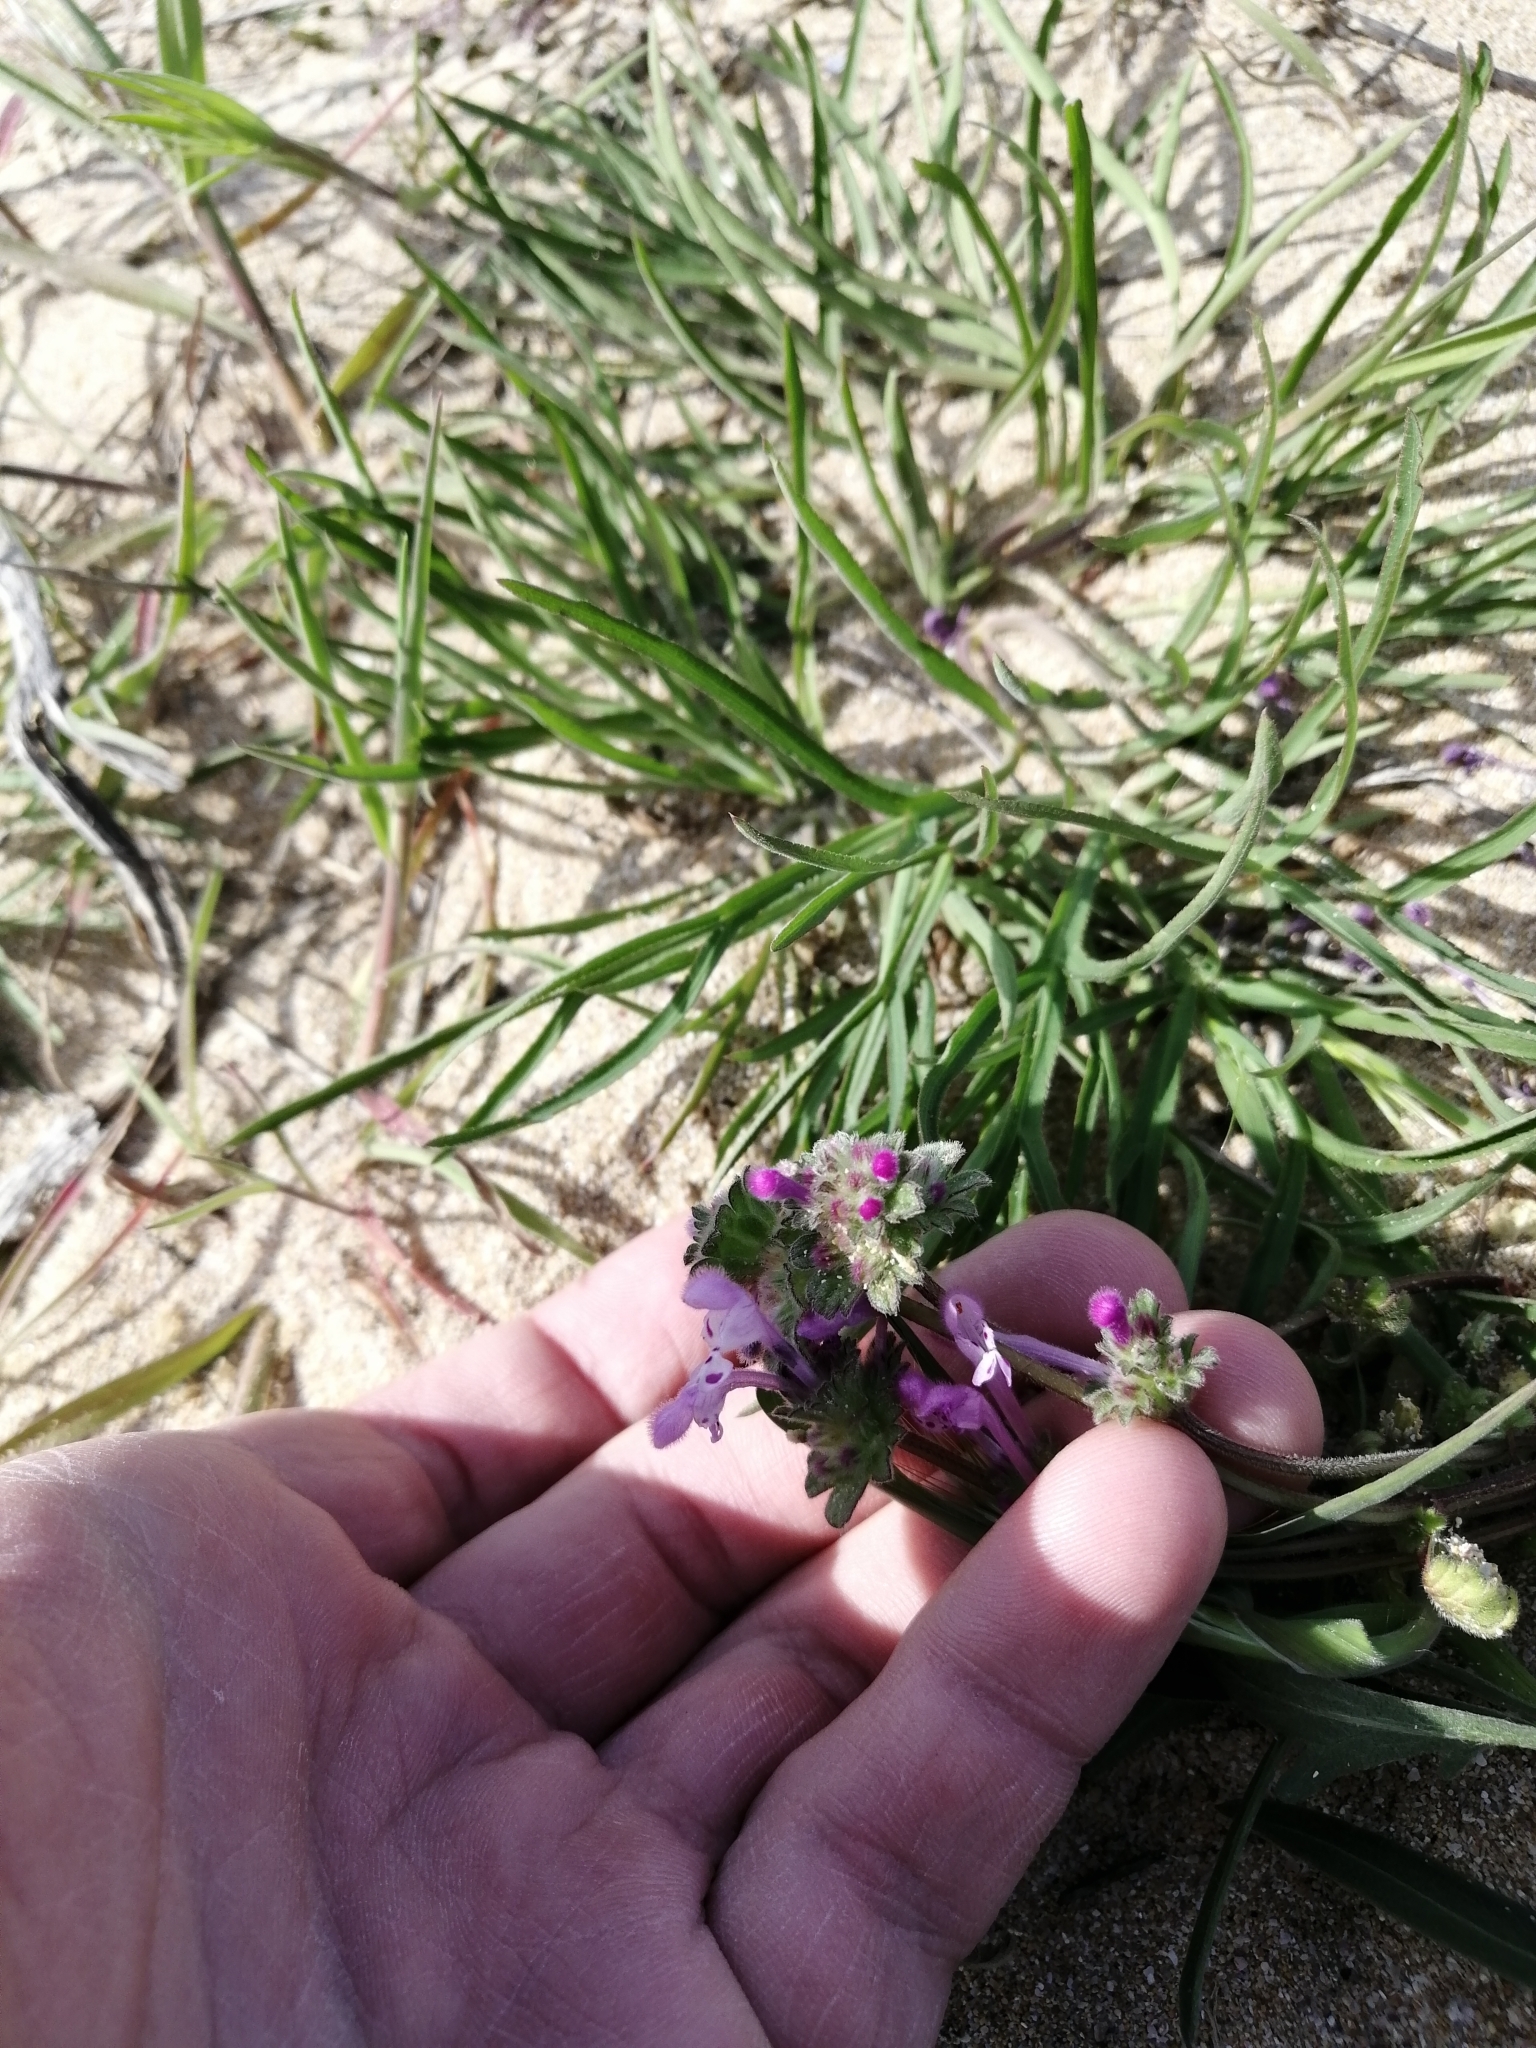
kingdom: Plantae
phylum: Tracheophyta
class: Magnoliopsida
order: Lamiales
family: Lamiaceae
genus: Lamium
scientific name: Lamium amplexicaule
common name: Henbit dead-nettle
